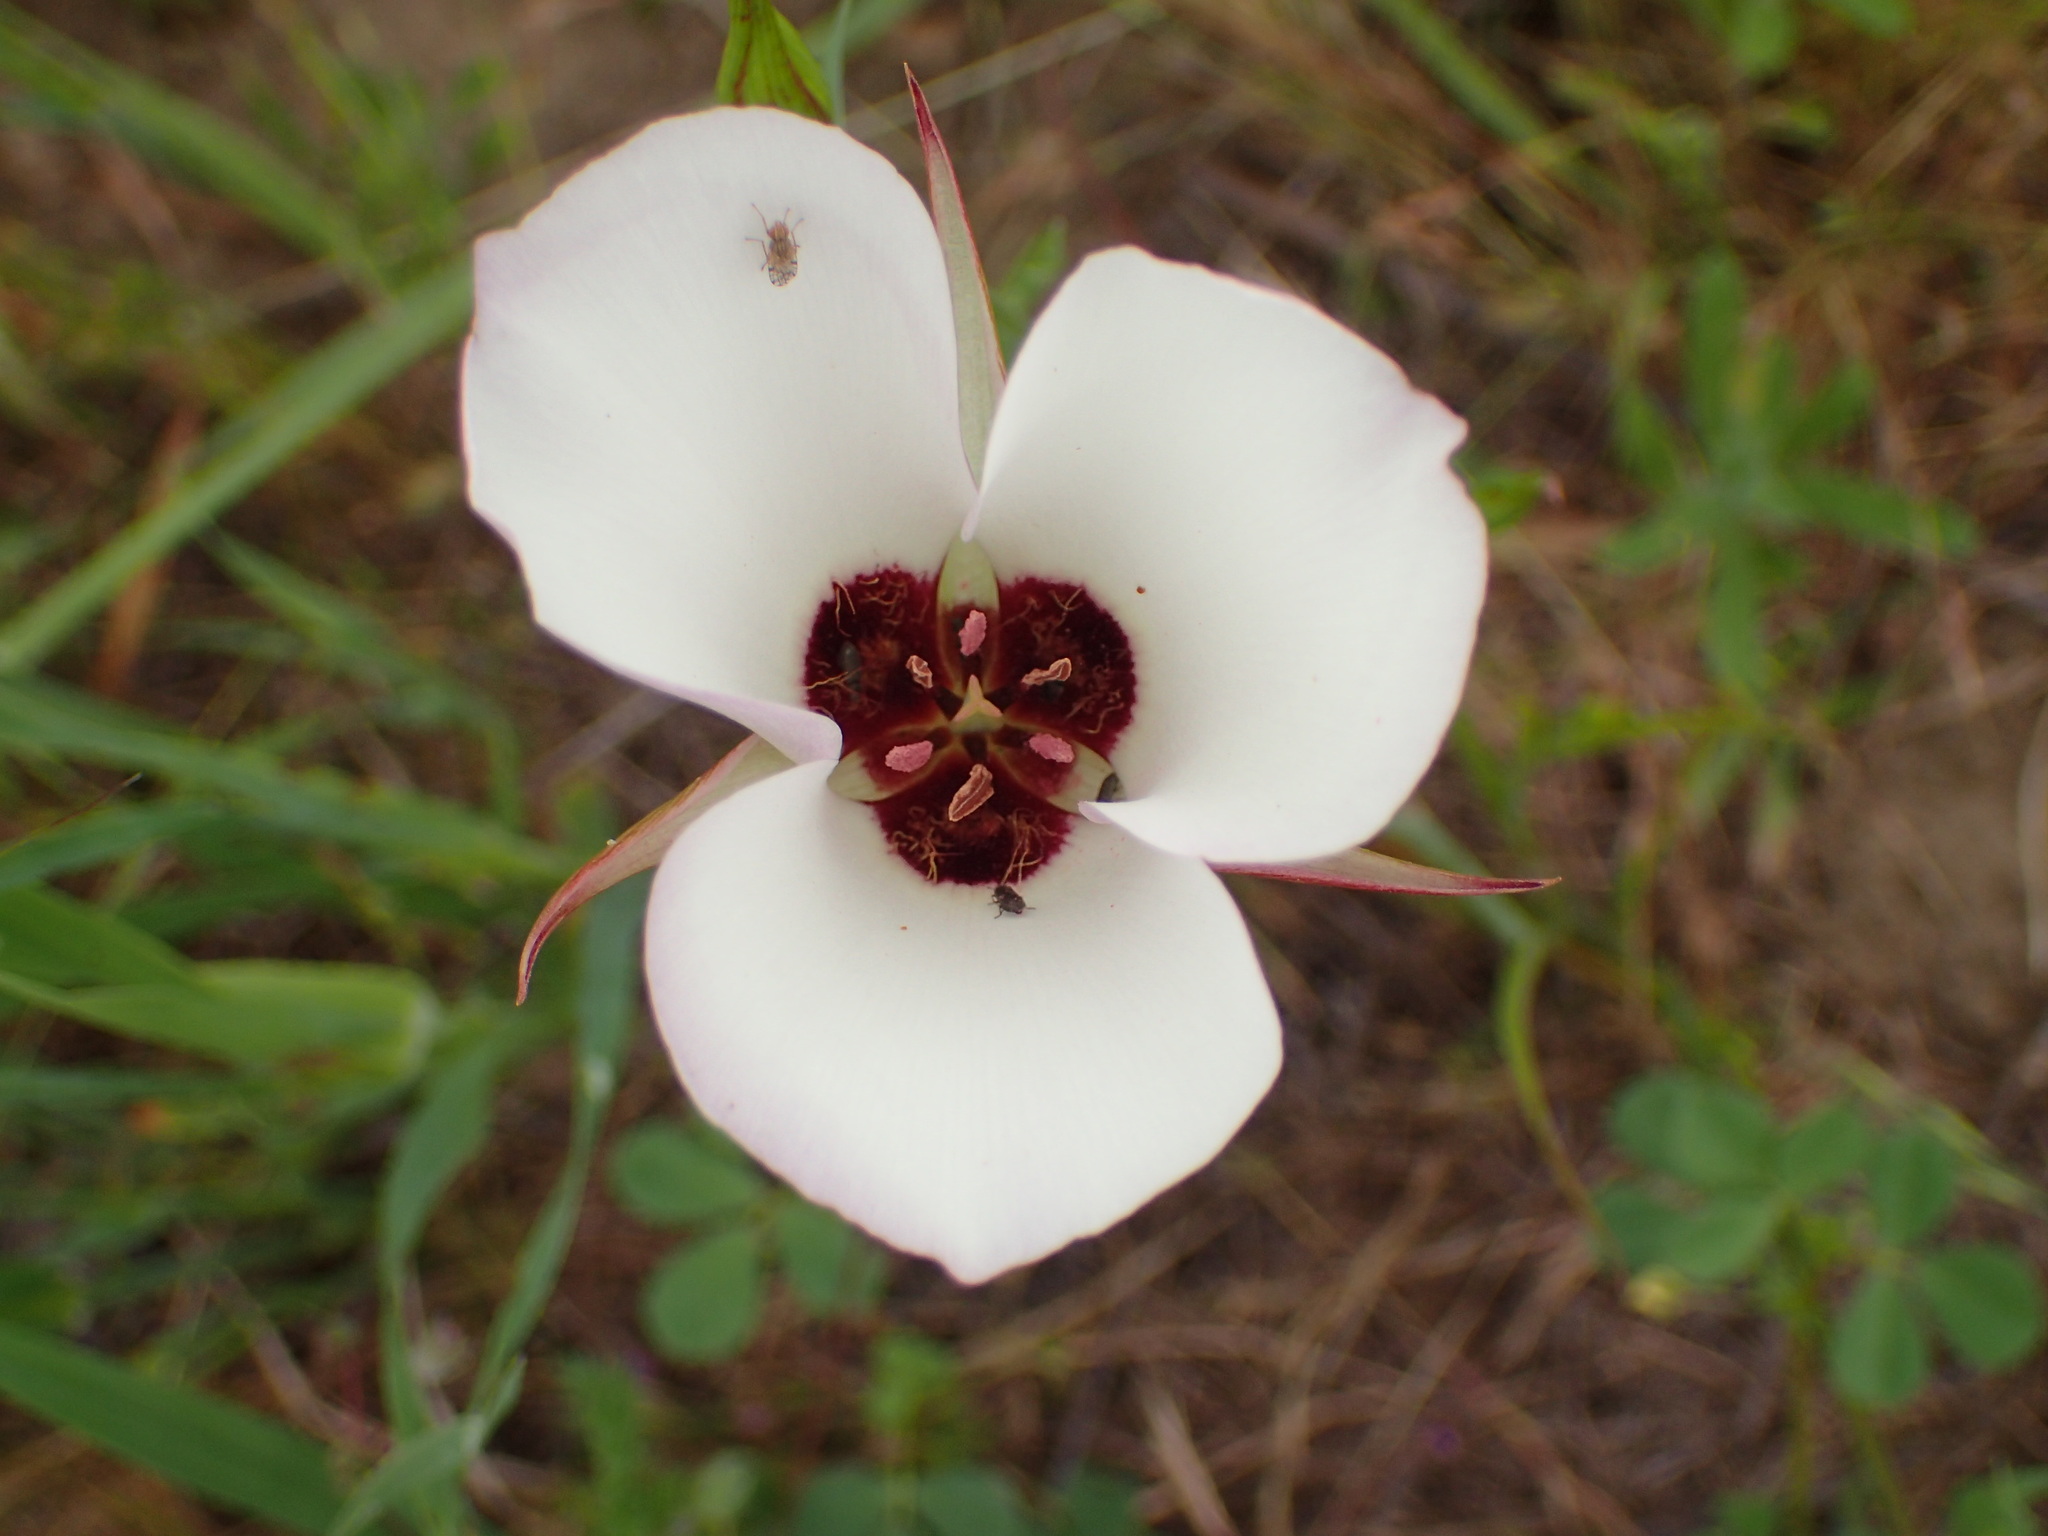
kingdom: Plantae
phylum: Tracheophyta
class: Liliopsida
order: Liliales
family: Liliaceae
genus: Calochortus
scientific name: Calochortus catalinae
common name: Catalina mariposa-lily
